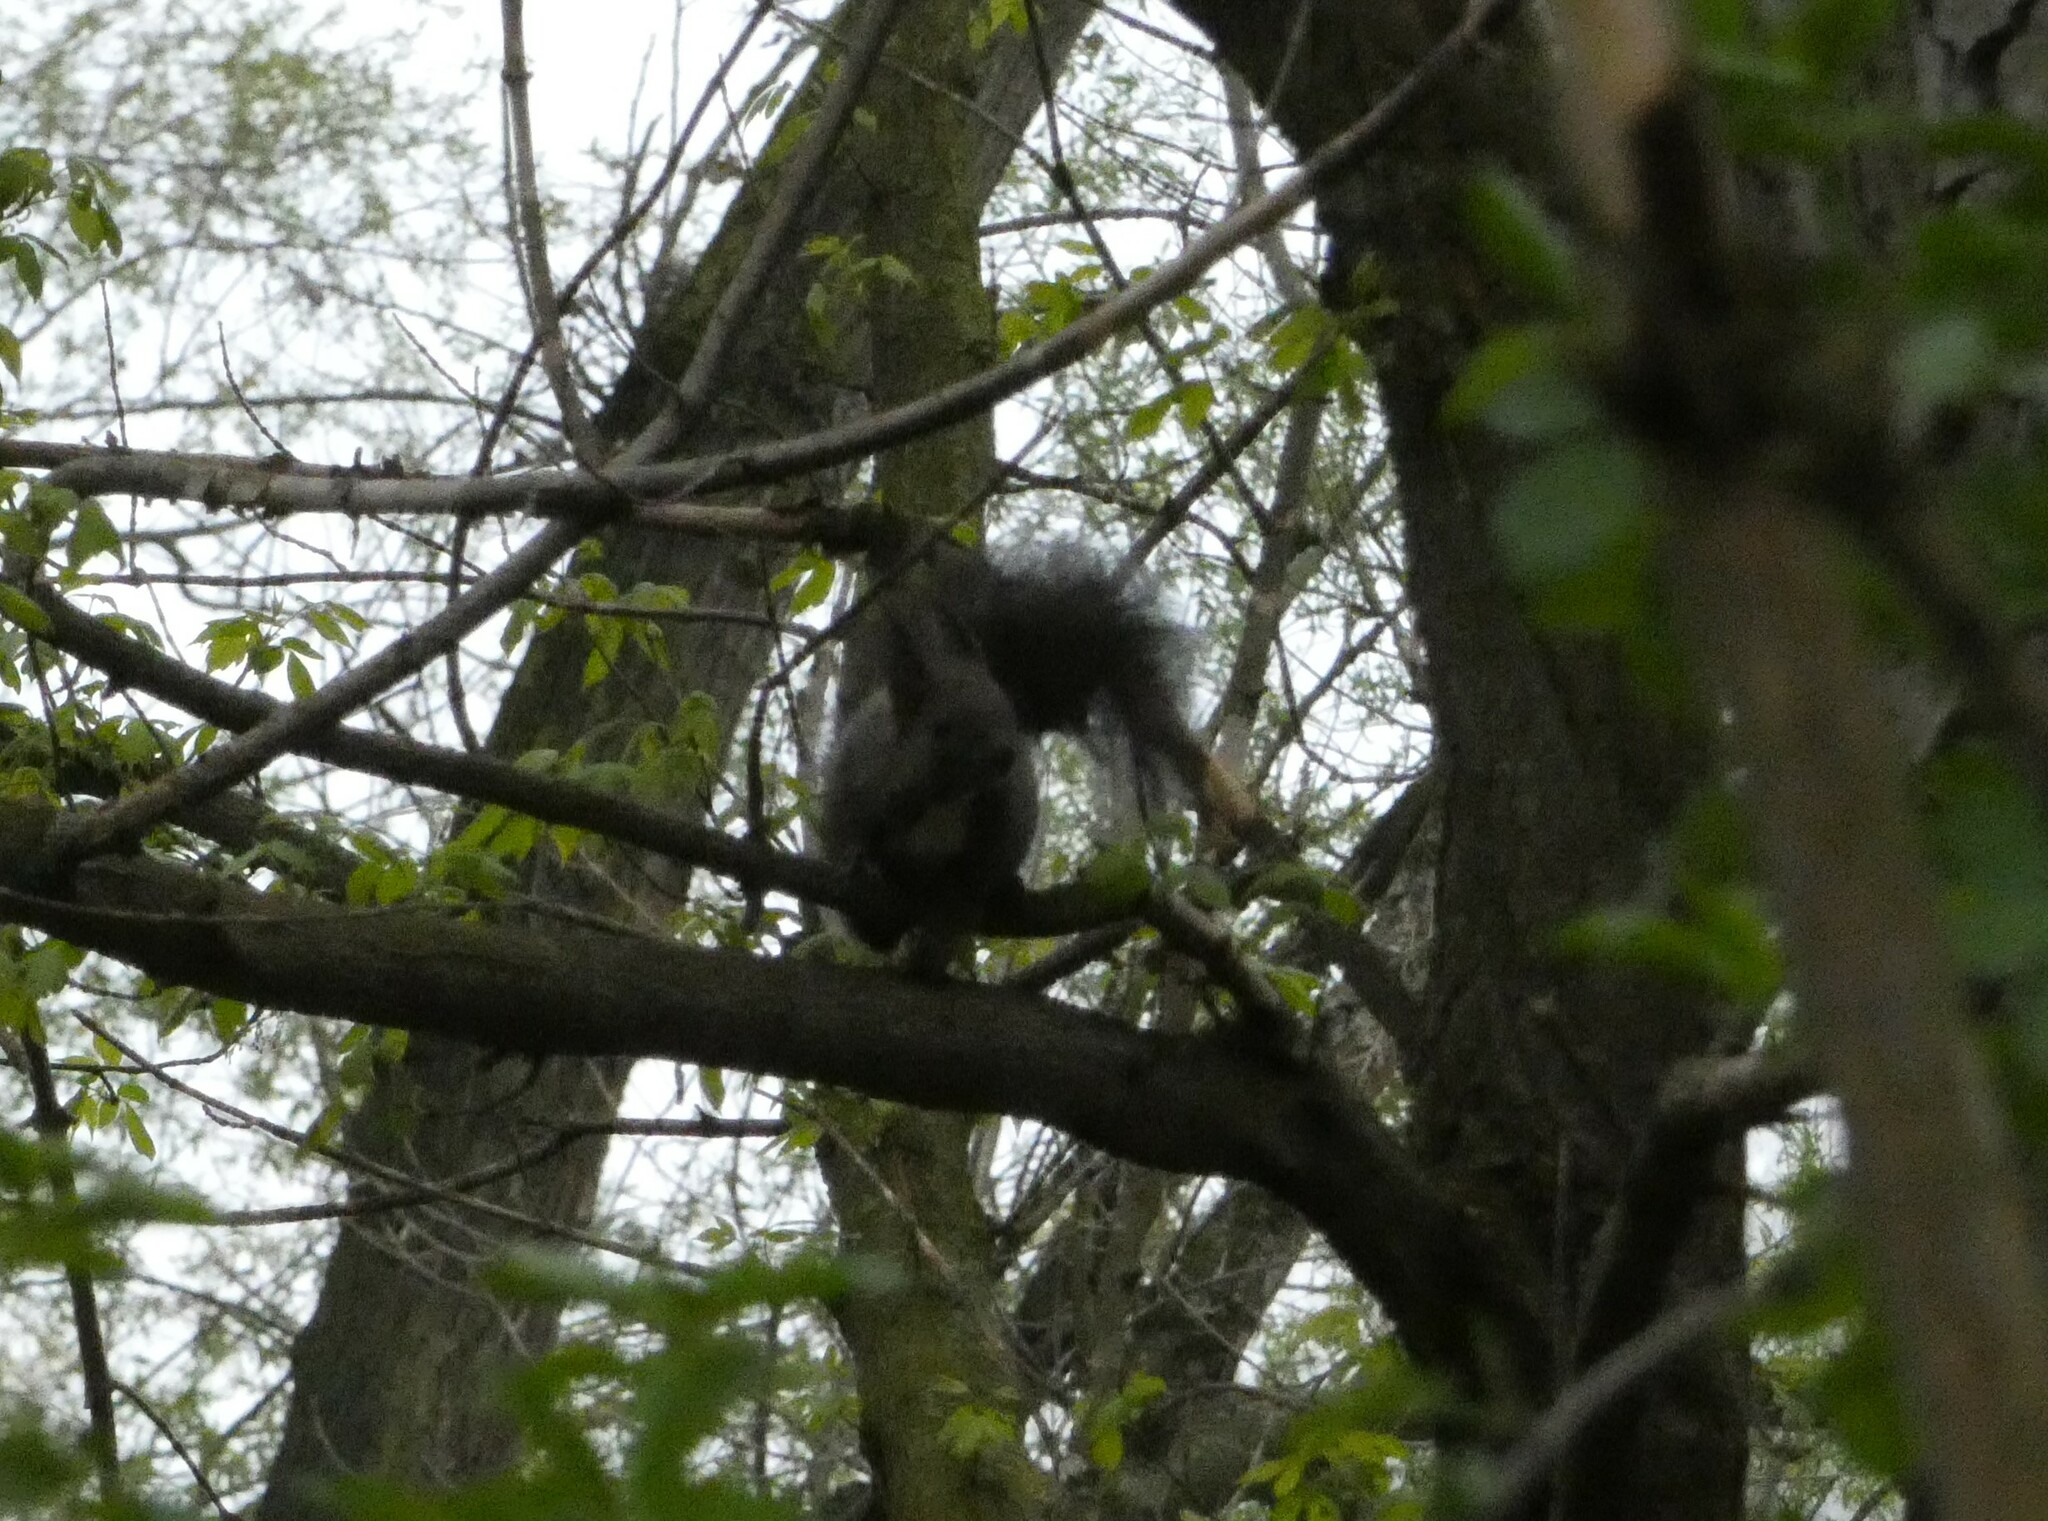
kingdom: Animalia
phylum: Chordata
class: Mammalia
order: Rodentia
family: Sciuridae
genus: Sciurus
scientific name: Sciurus vulgaris
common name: Eurasian red squirrel
